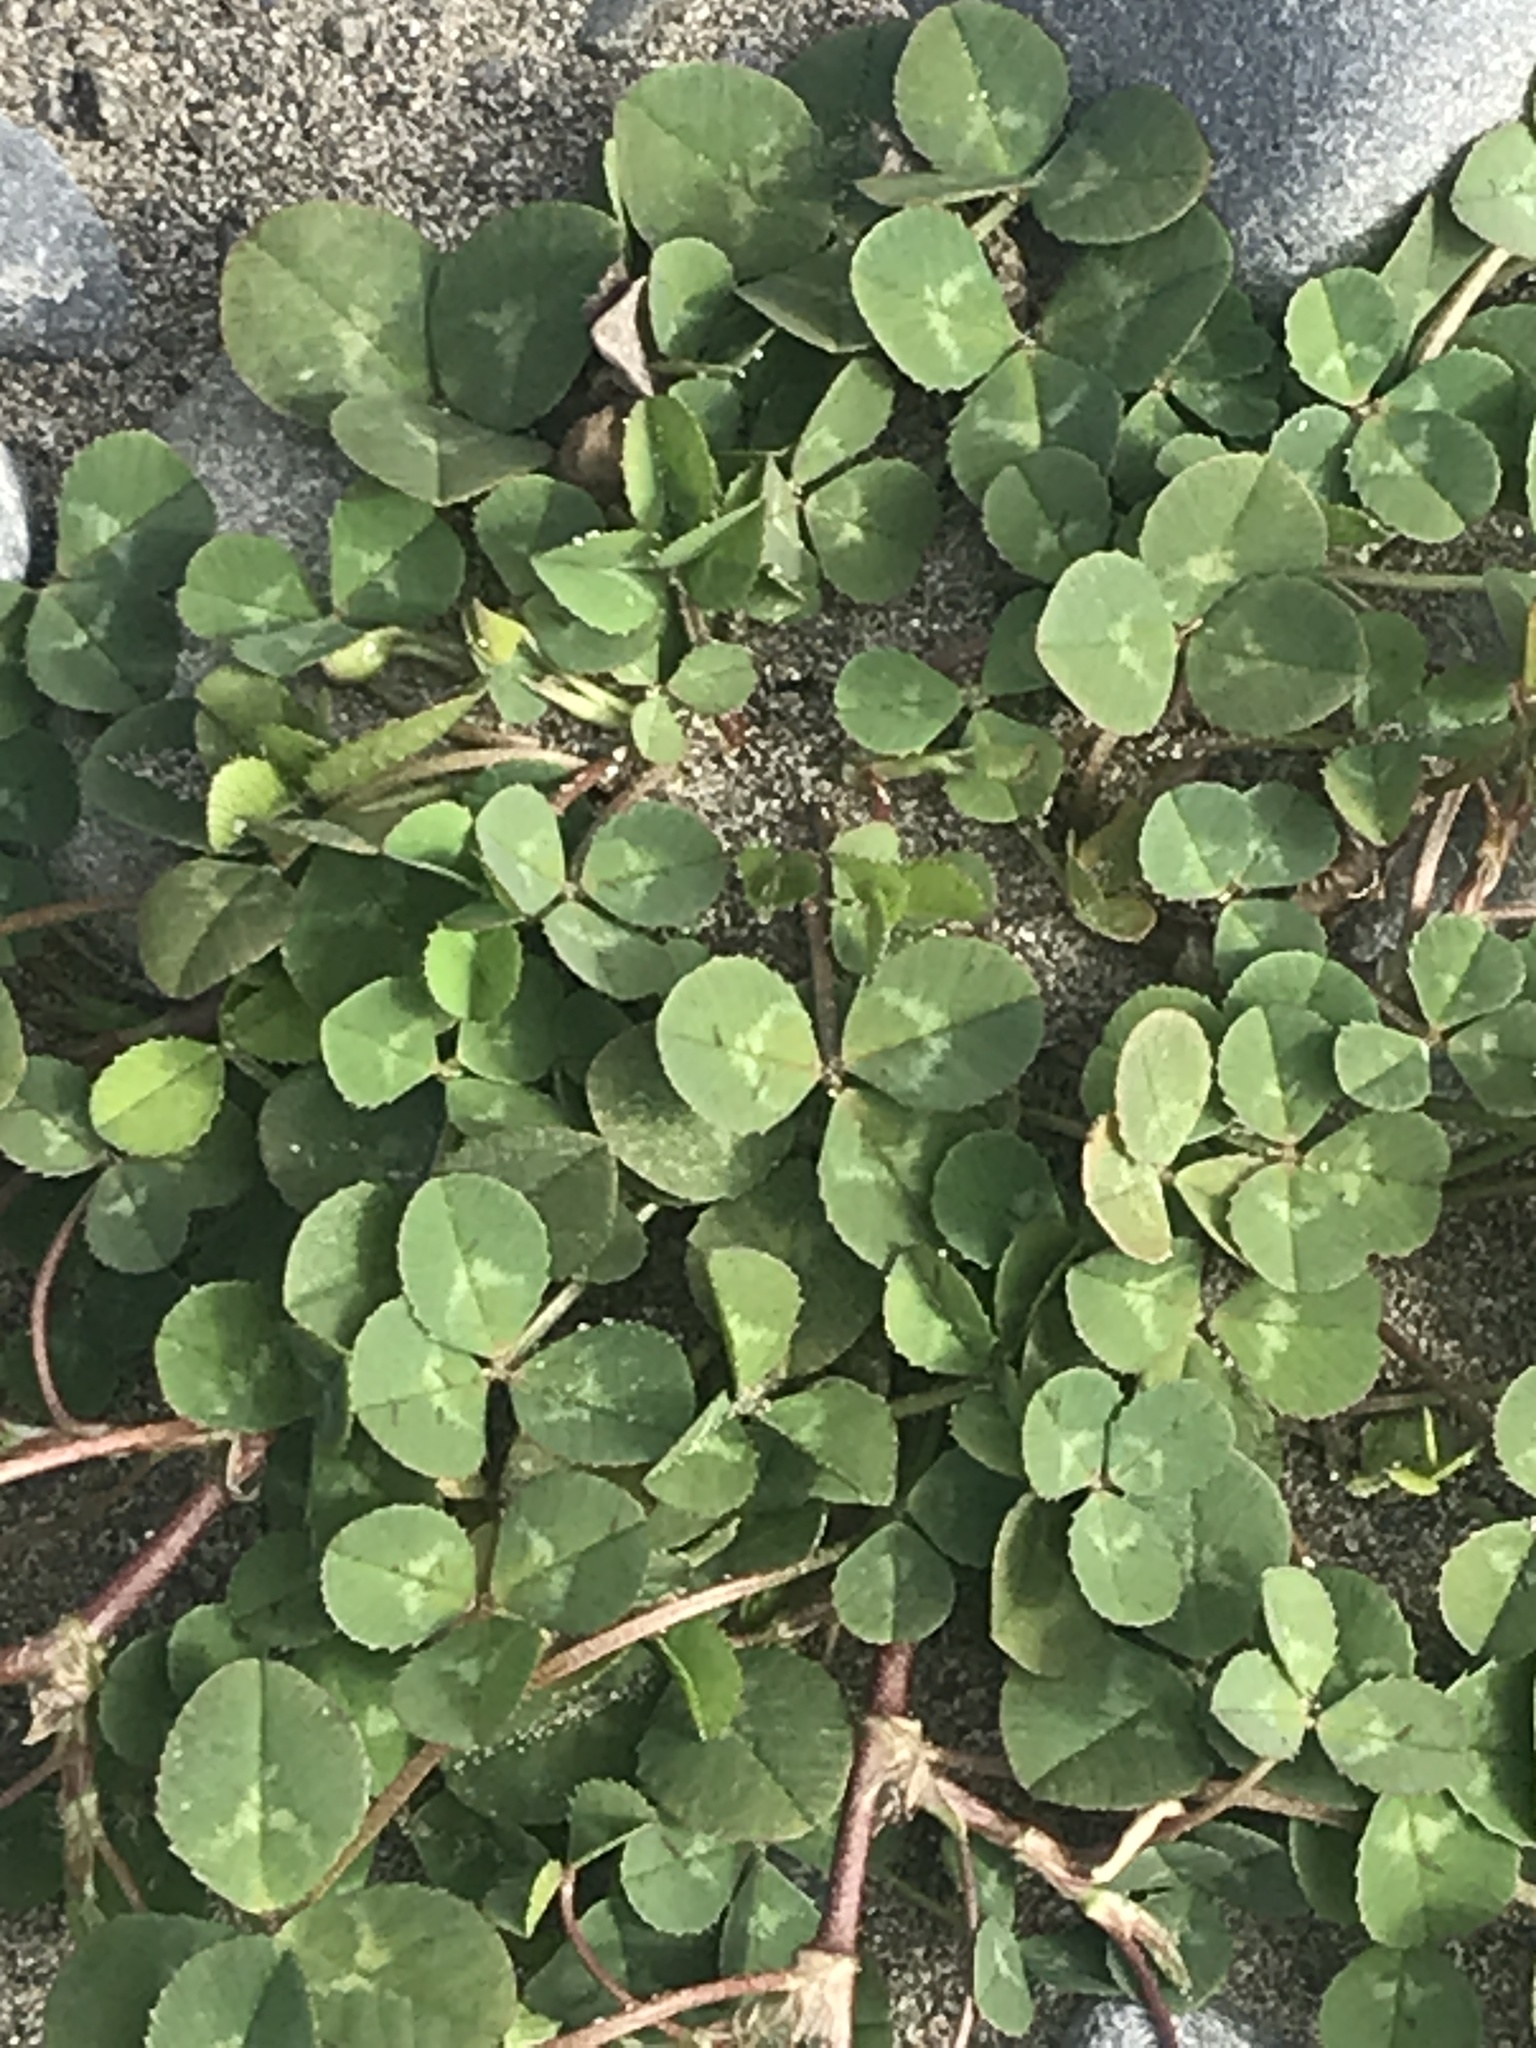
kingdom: Plantae
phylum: Tracheophyta
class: Magnoliopsida
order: Fabales
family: Fabaceae
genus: Trifolium
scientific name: Trifolium repens
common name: White clover
